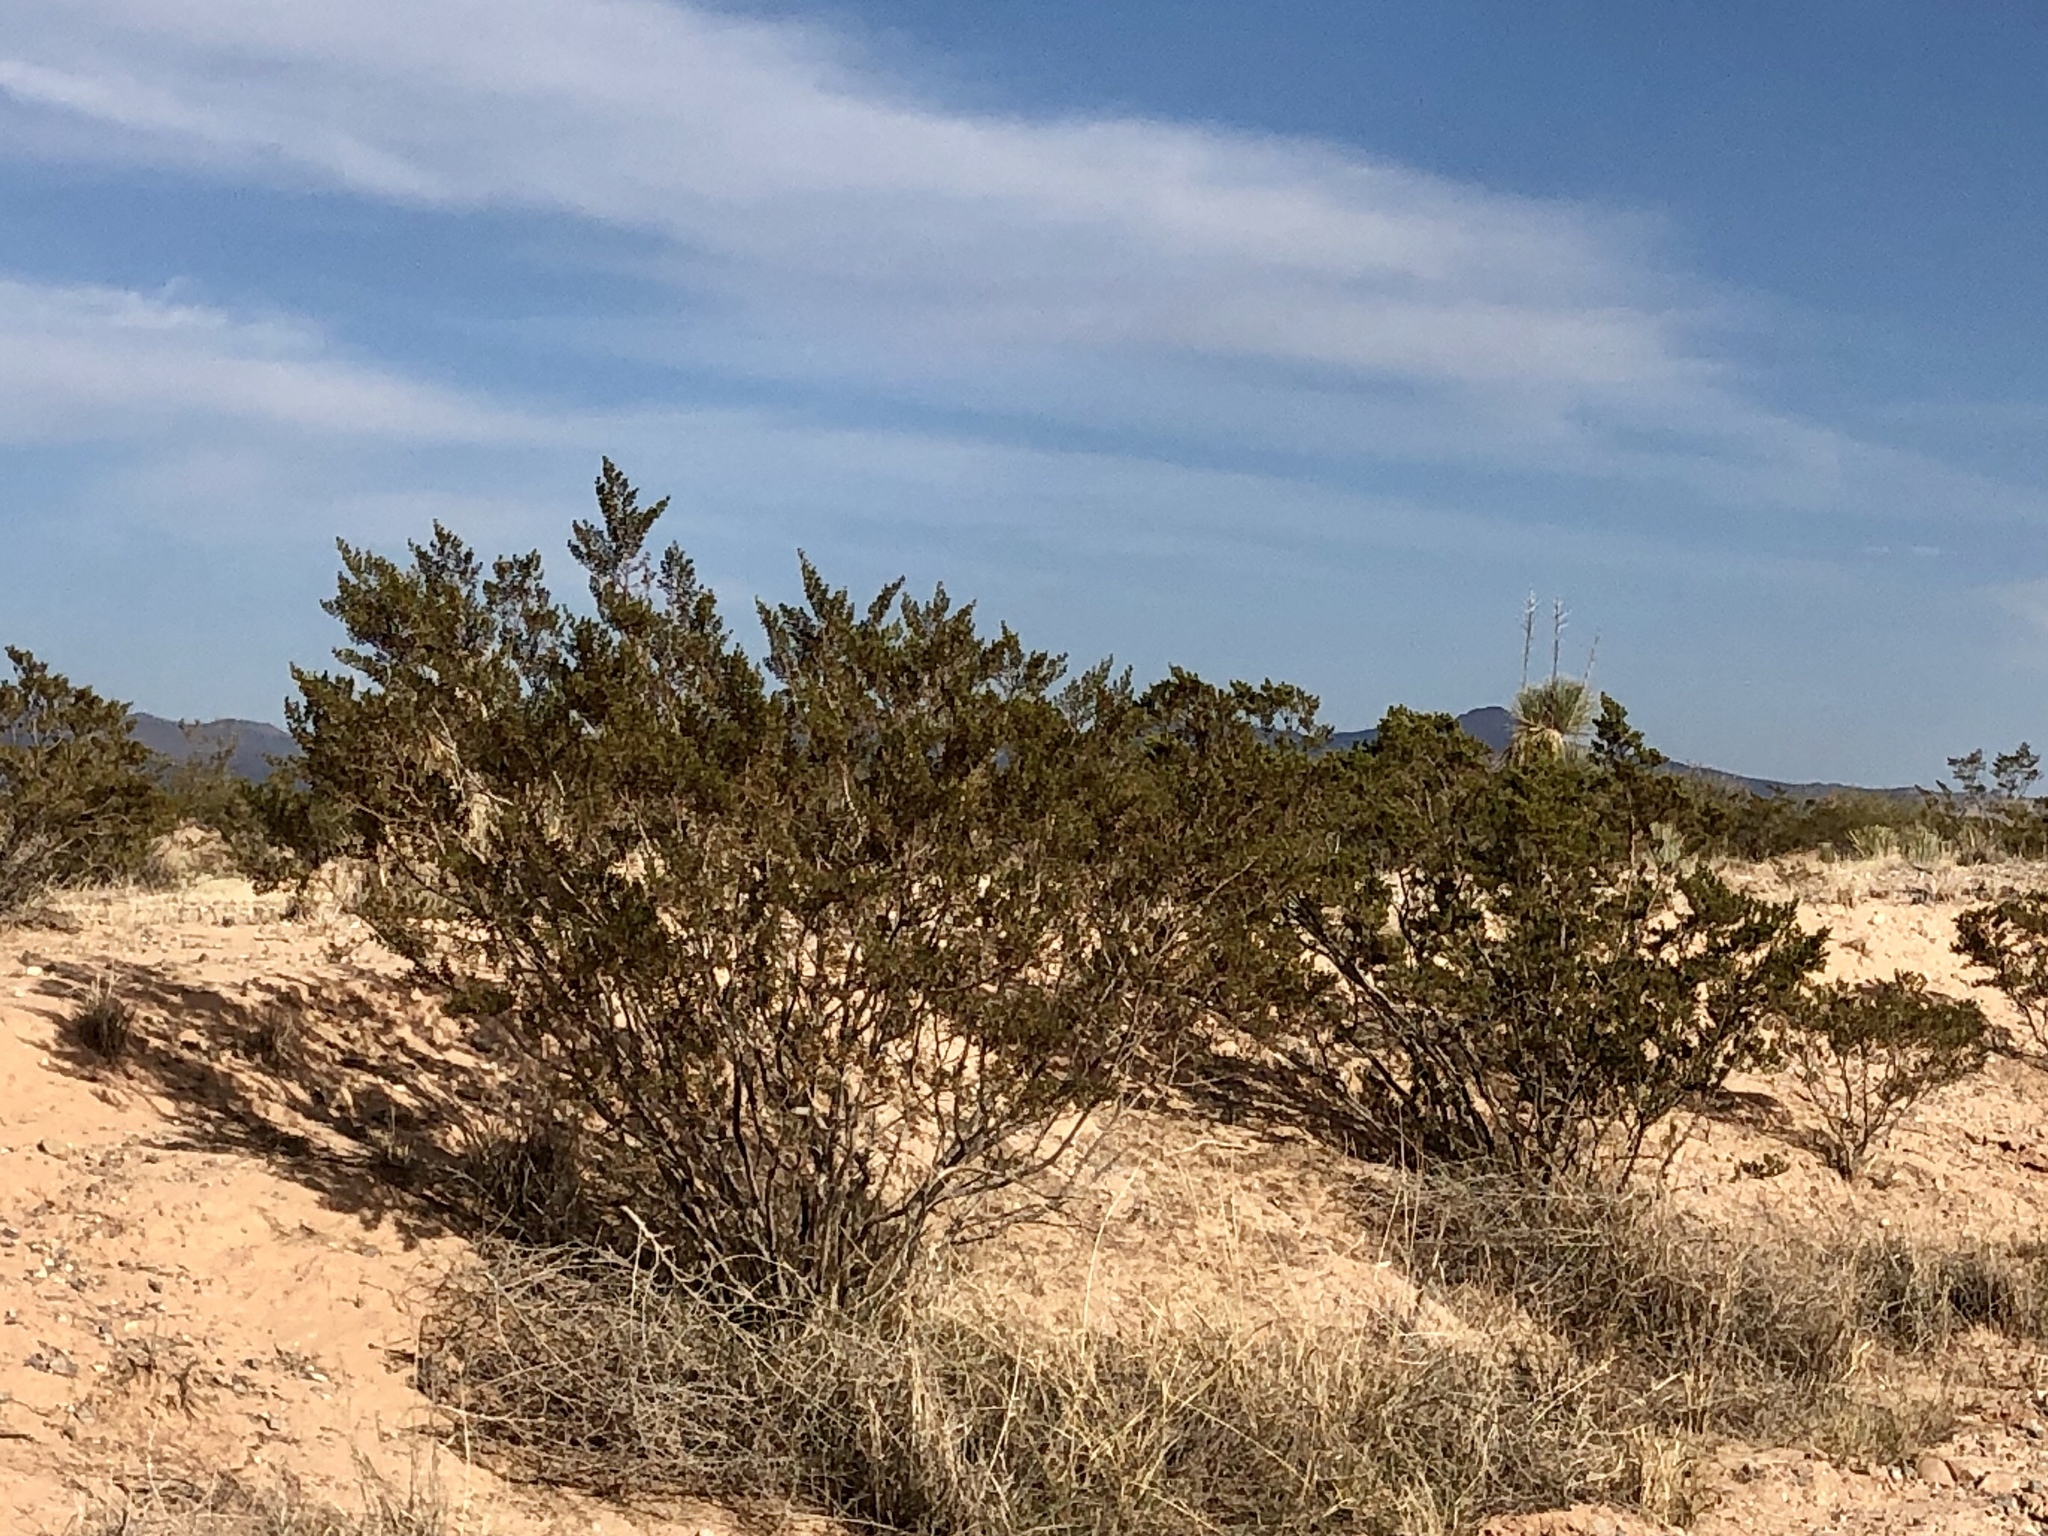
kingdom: Plantae
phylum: Tracheophyta
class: Magnoliopsida
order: Zygophyllales
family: Zygophyllaceae
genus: Larrea
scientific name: Larrea tridentata
